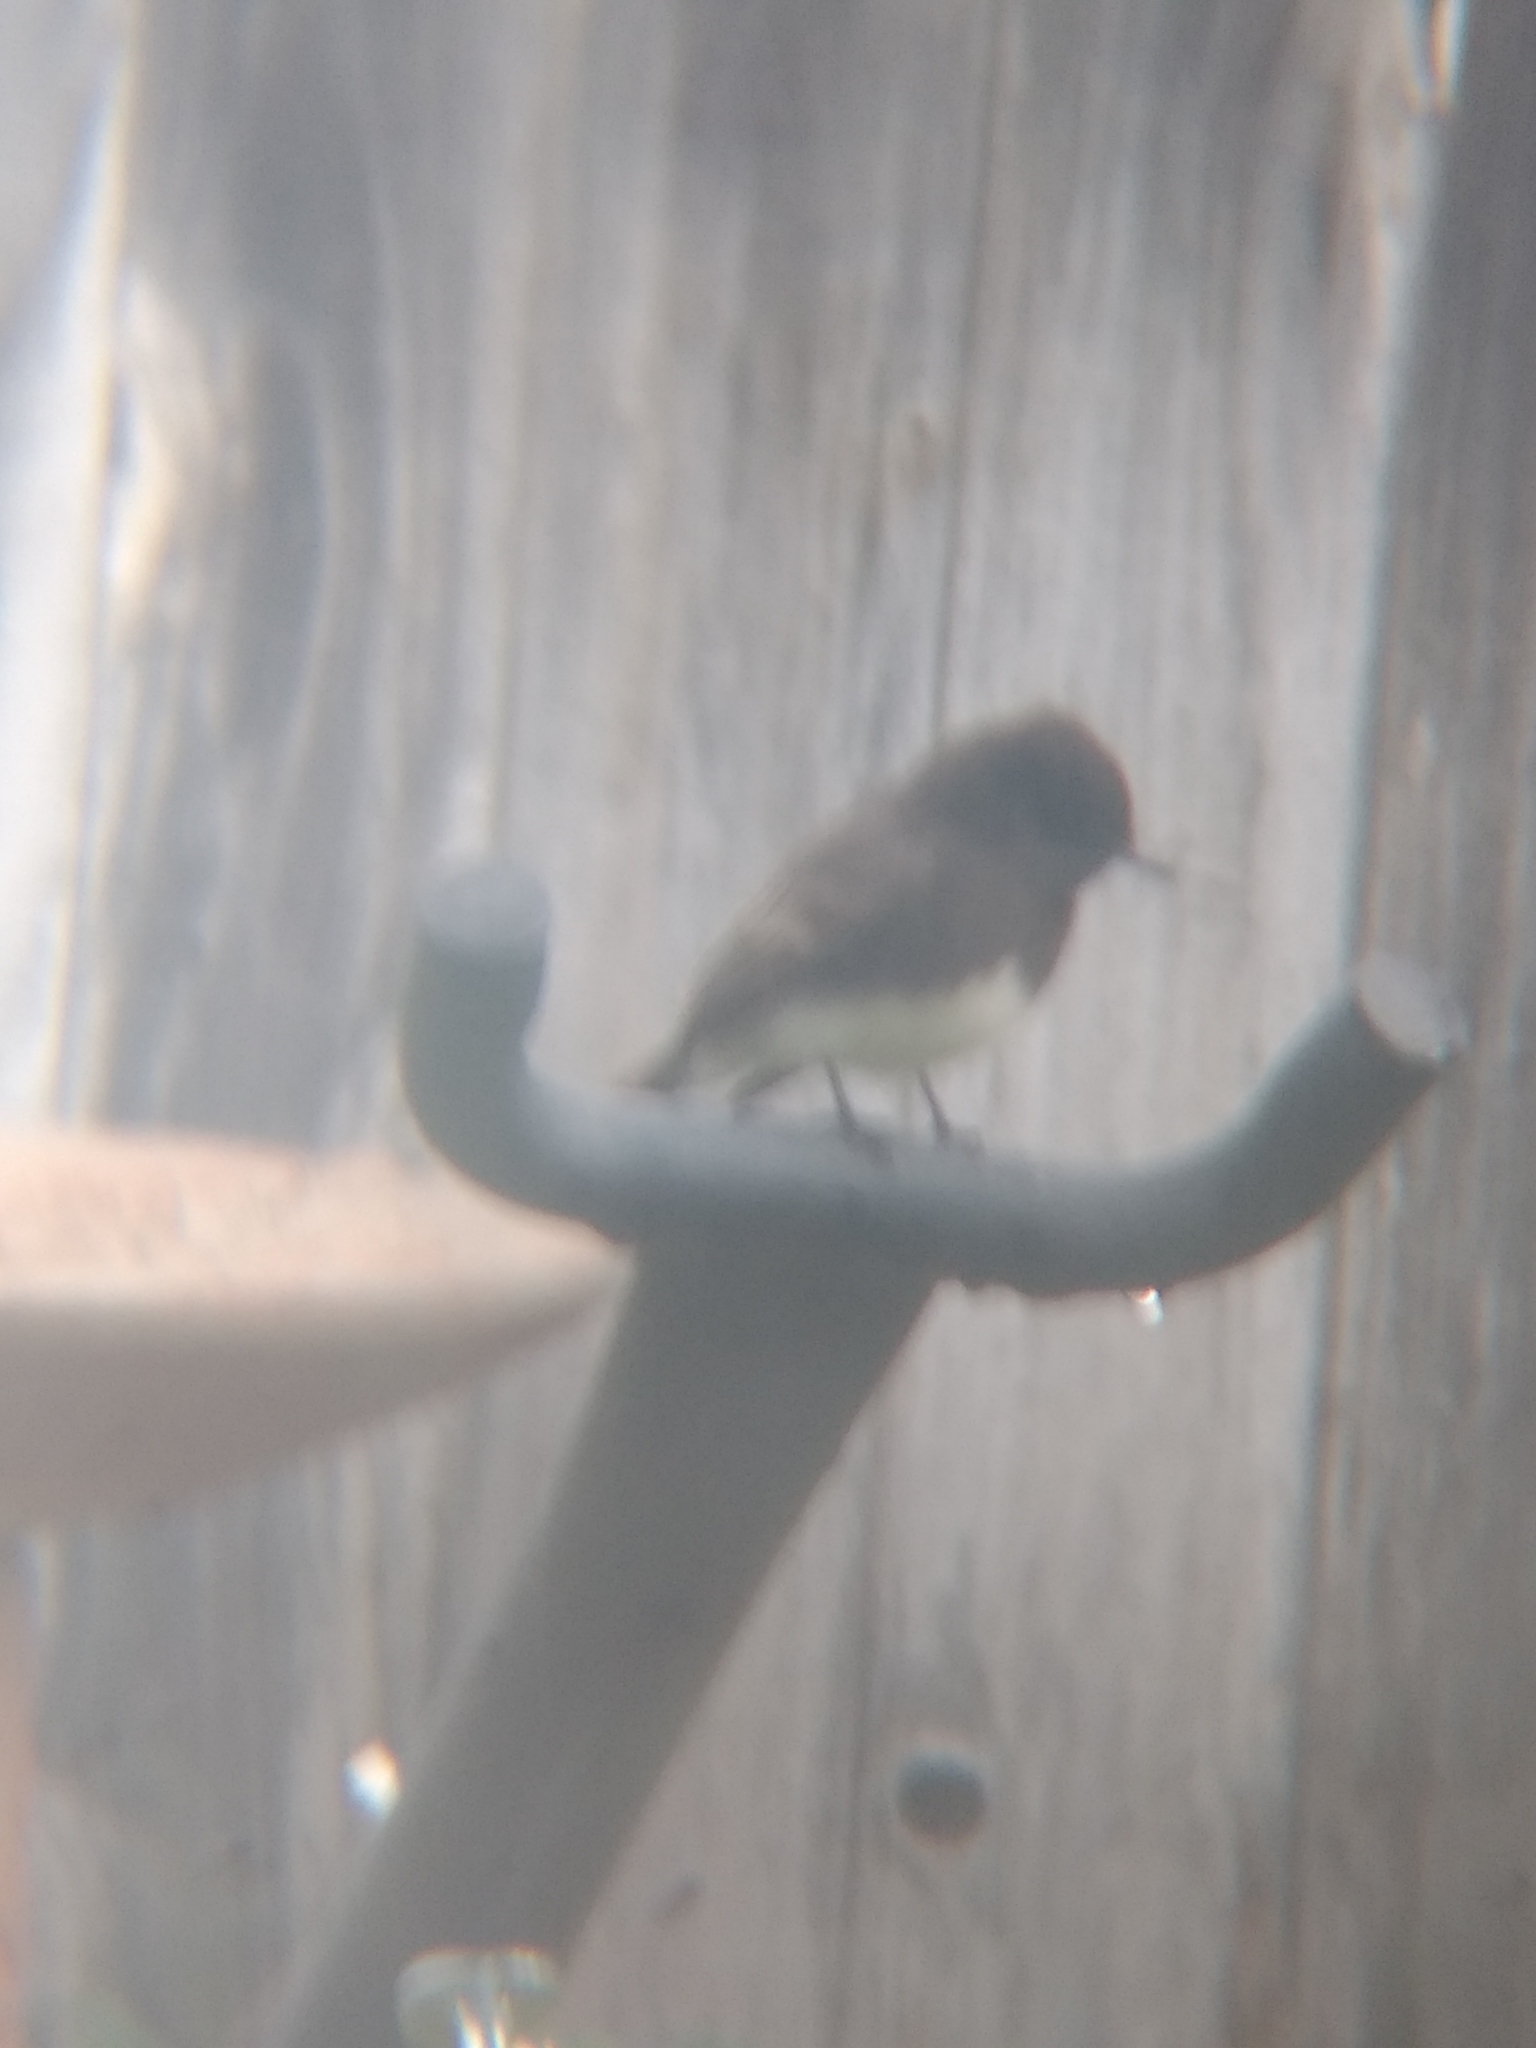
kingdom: Animalia
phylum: Chordata
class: Aves
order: Passeriformes
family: Tyrannidae
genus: Sayornis
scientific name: Sayornis nigricans
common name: Black phoebe
